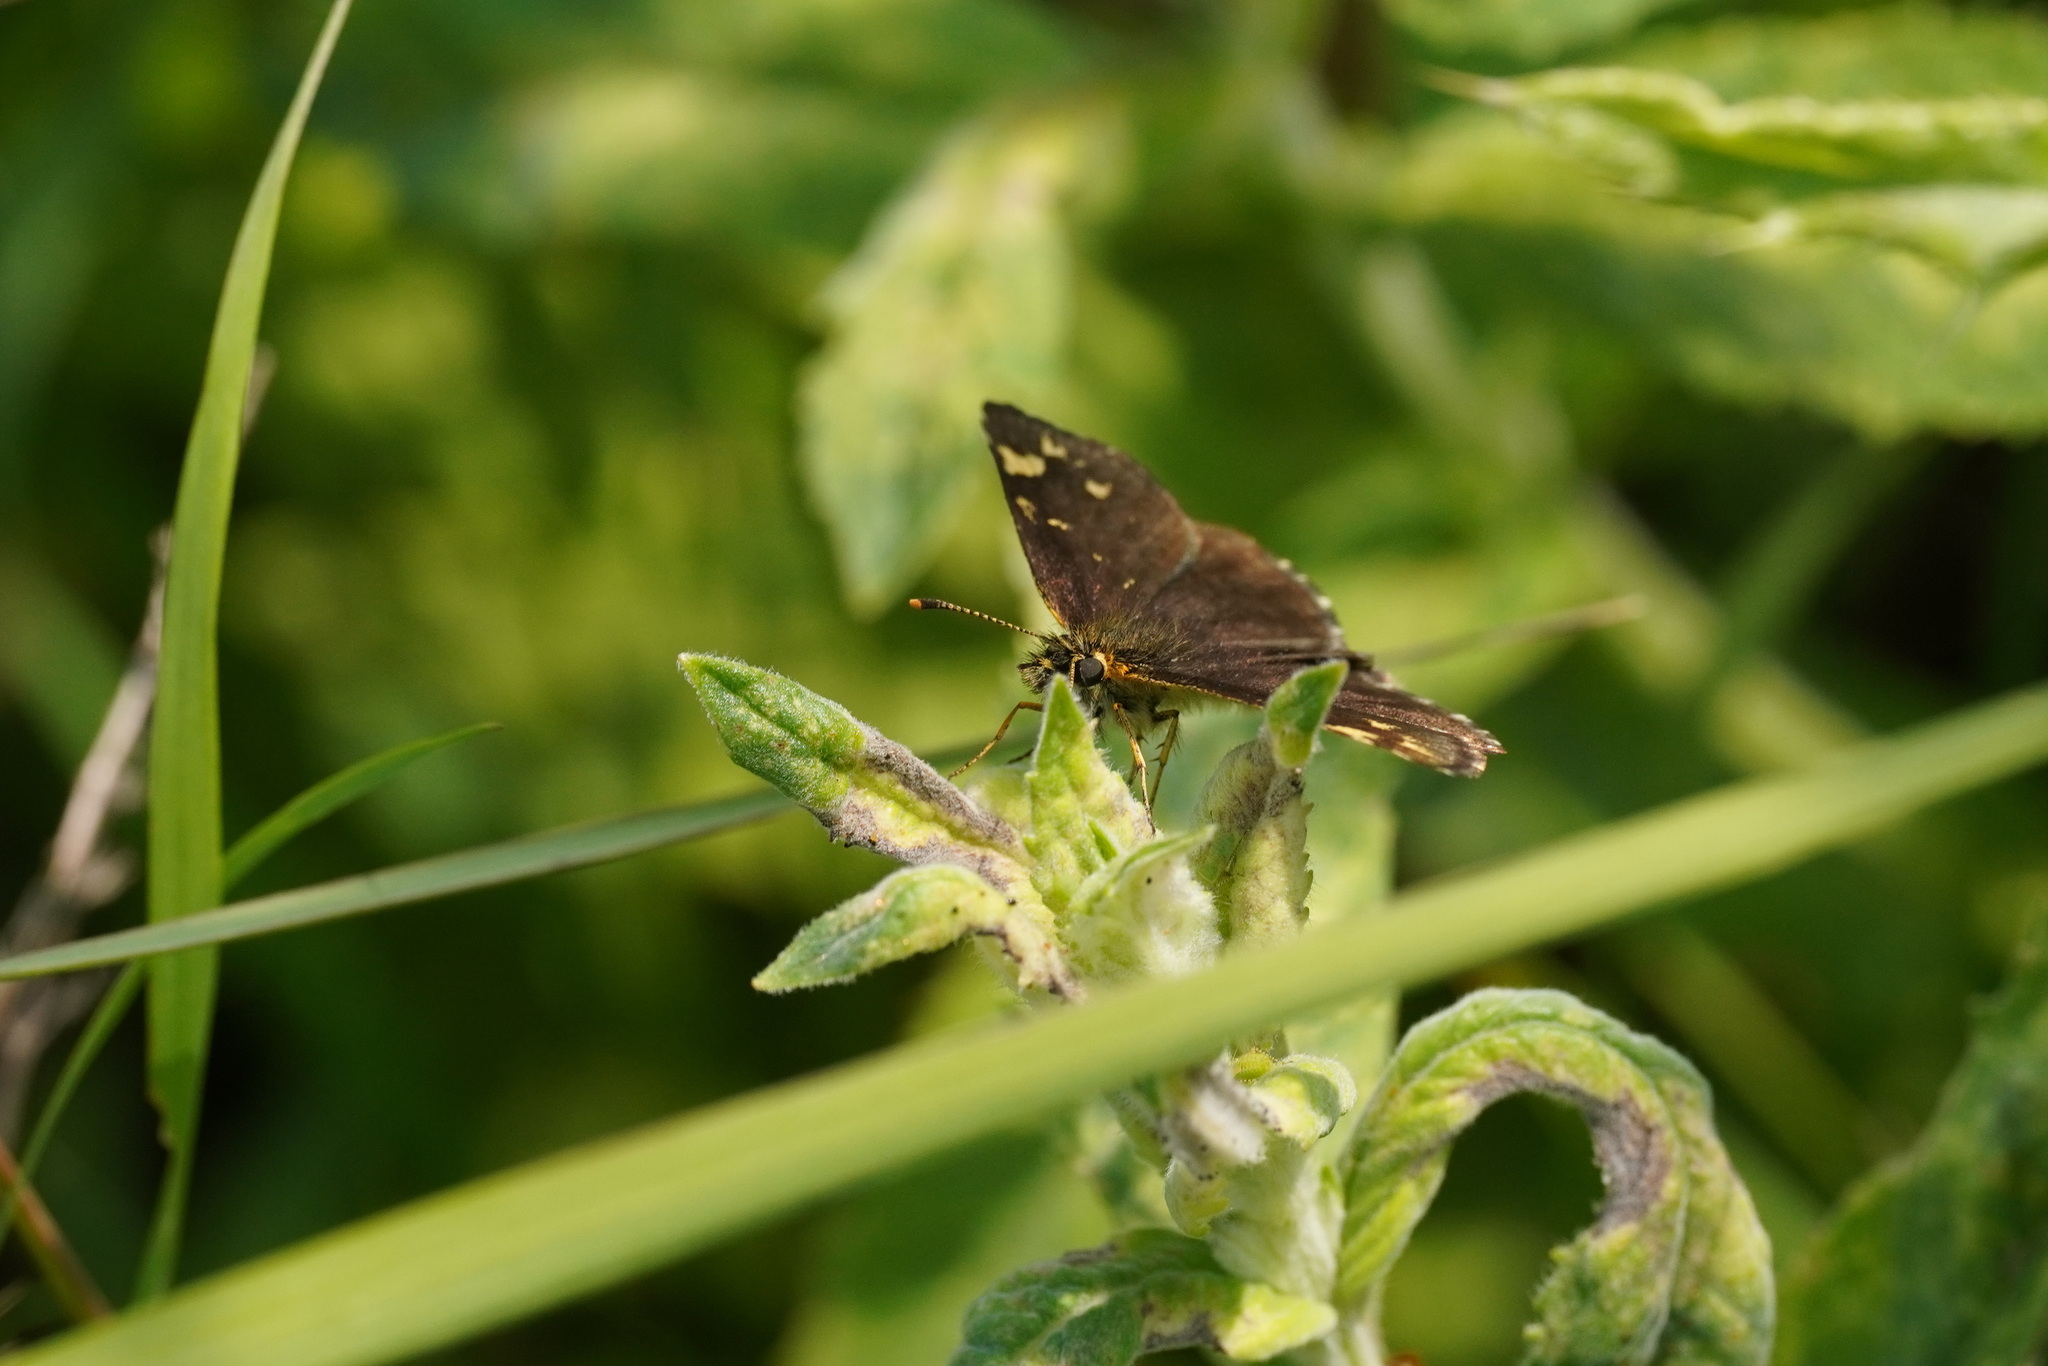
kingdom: Animalia
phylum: Arthropoda
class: Insecta
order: Lepidoptera
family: Hesperiidae
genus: Heteropterus
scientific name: Heteropterus morpheus
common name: Large chequered skipper
